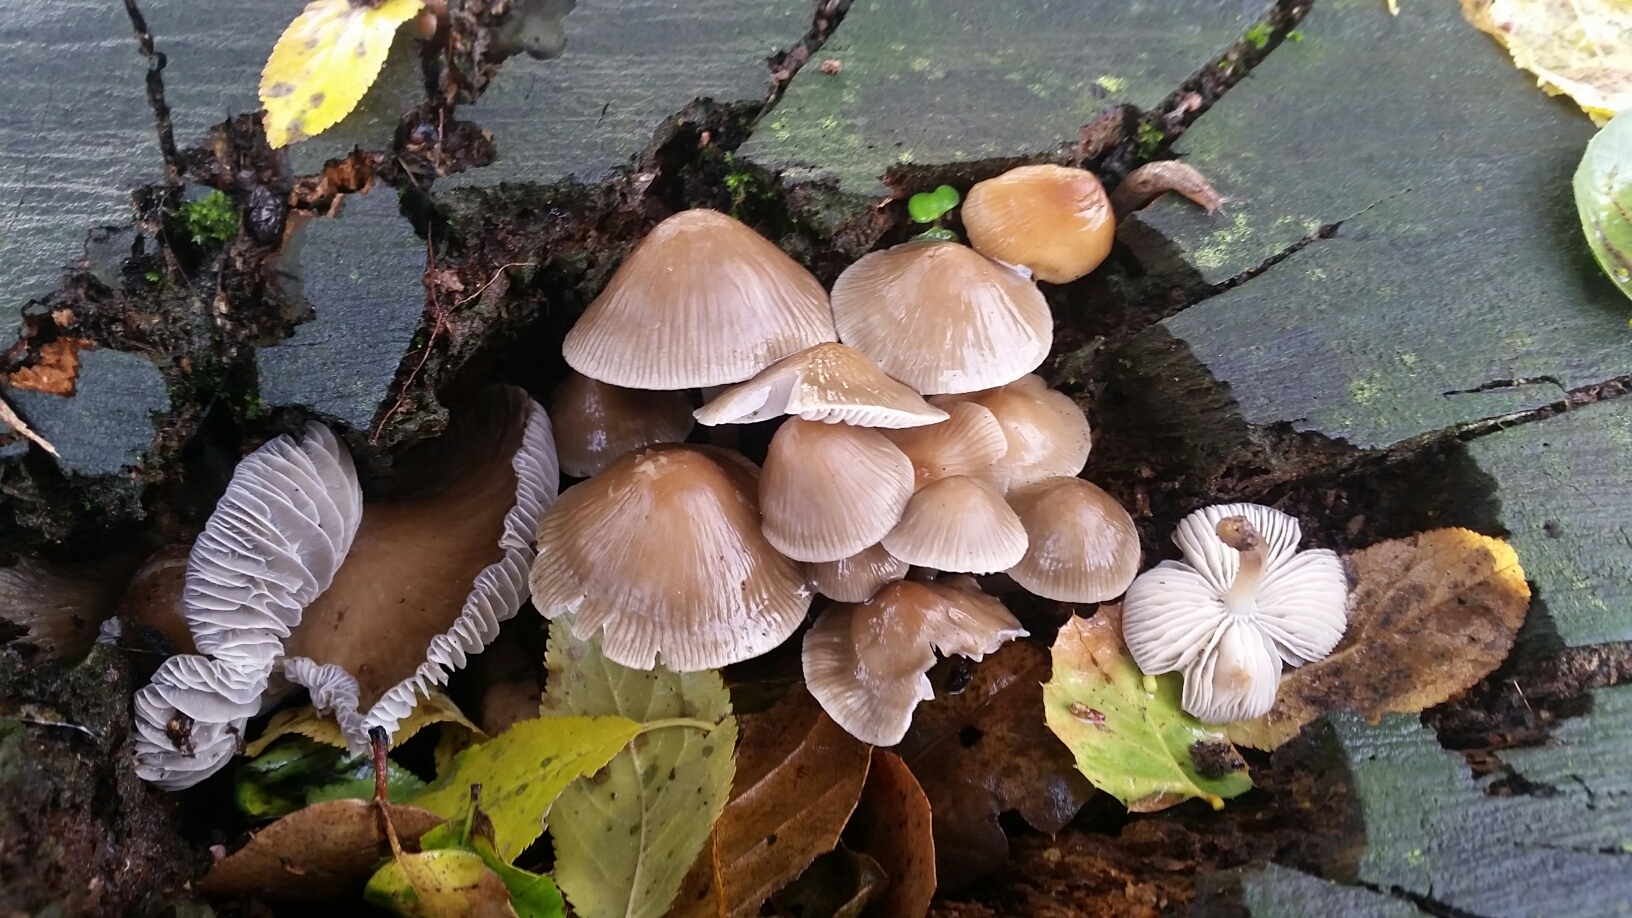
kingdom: Fungi
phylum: Basidiomycota
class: Agaricomycetes
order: Agaricales
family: Mycenaceae
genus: Mycena
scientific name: Mycena galericulata
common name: Bonnet mycena
